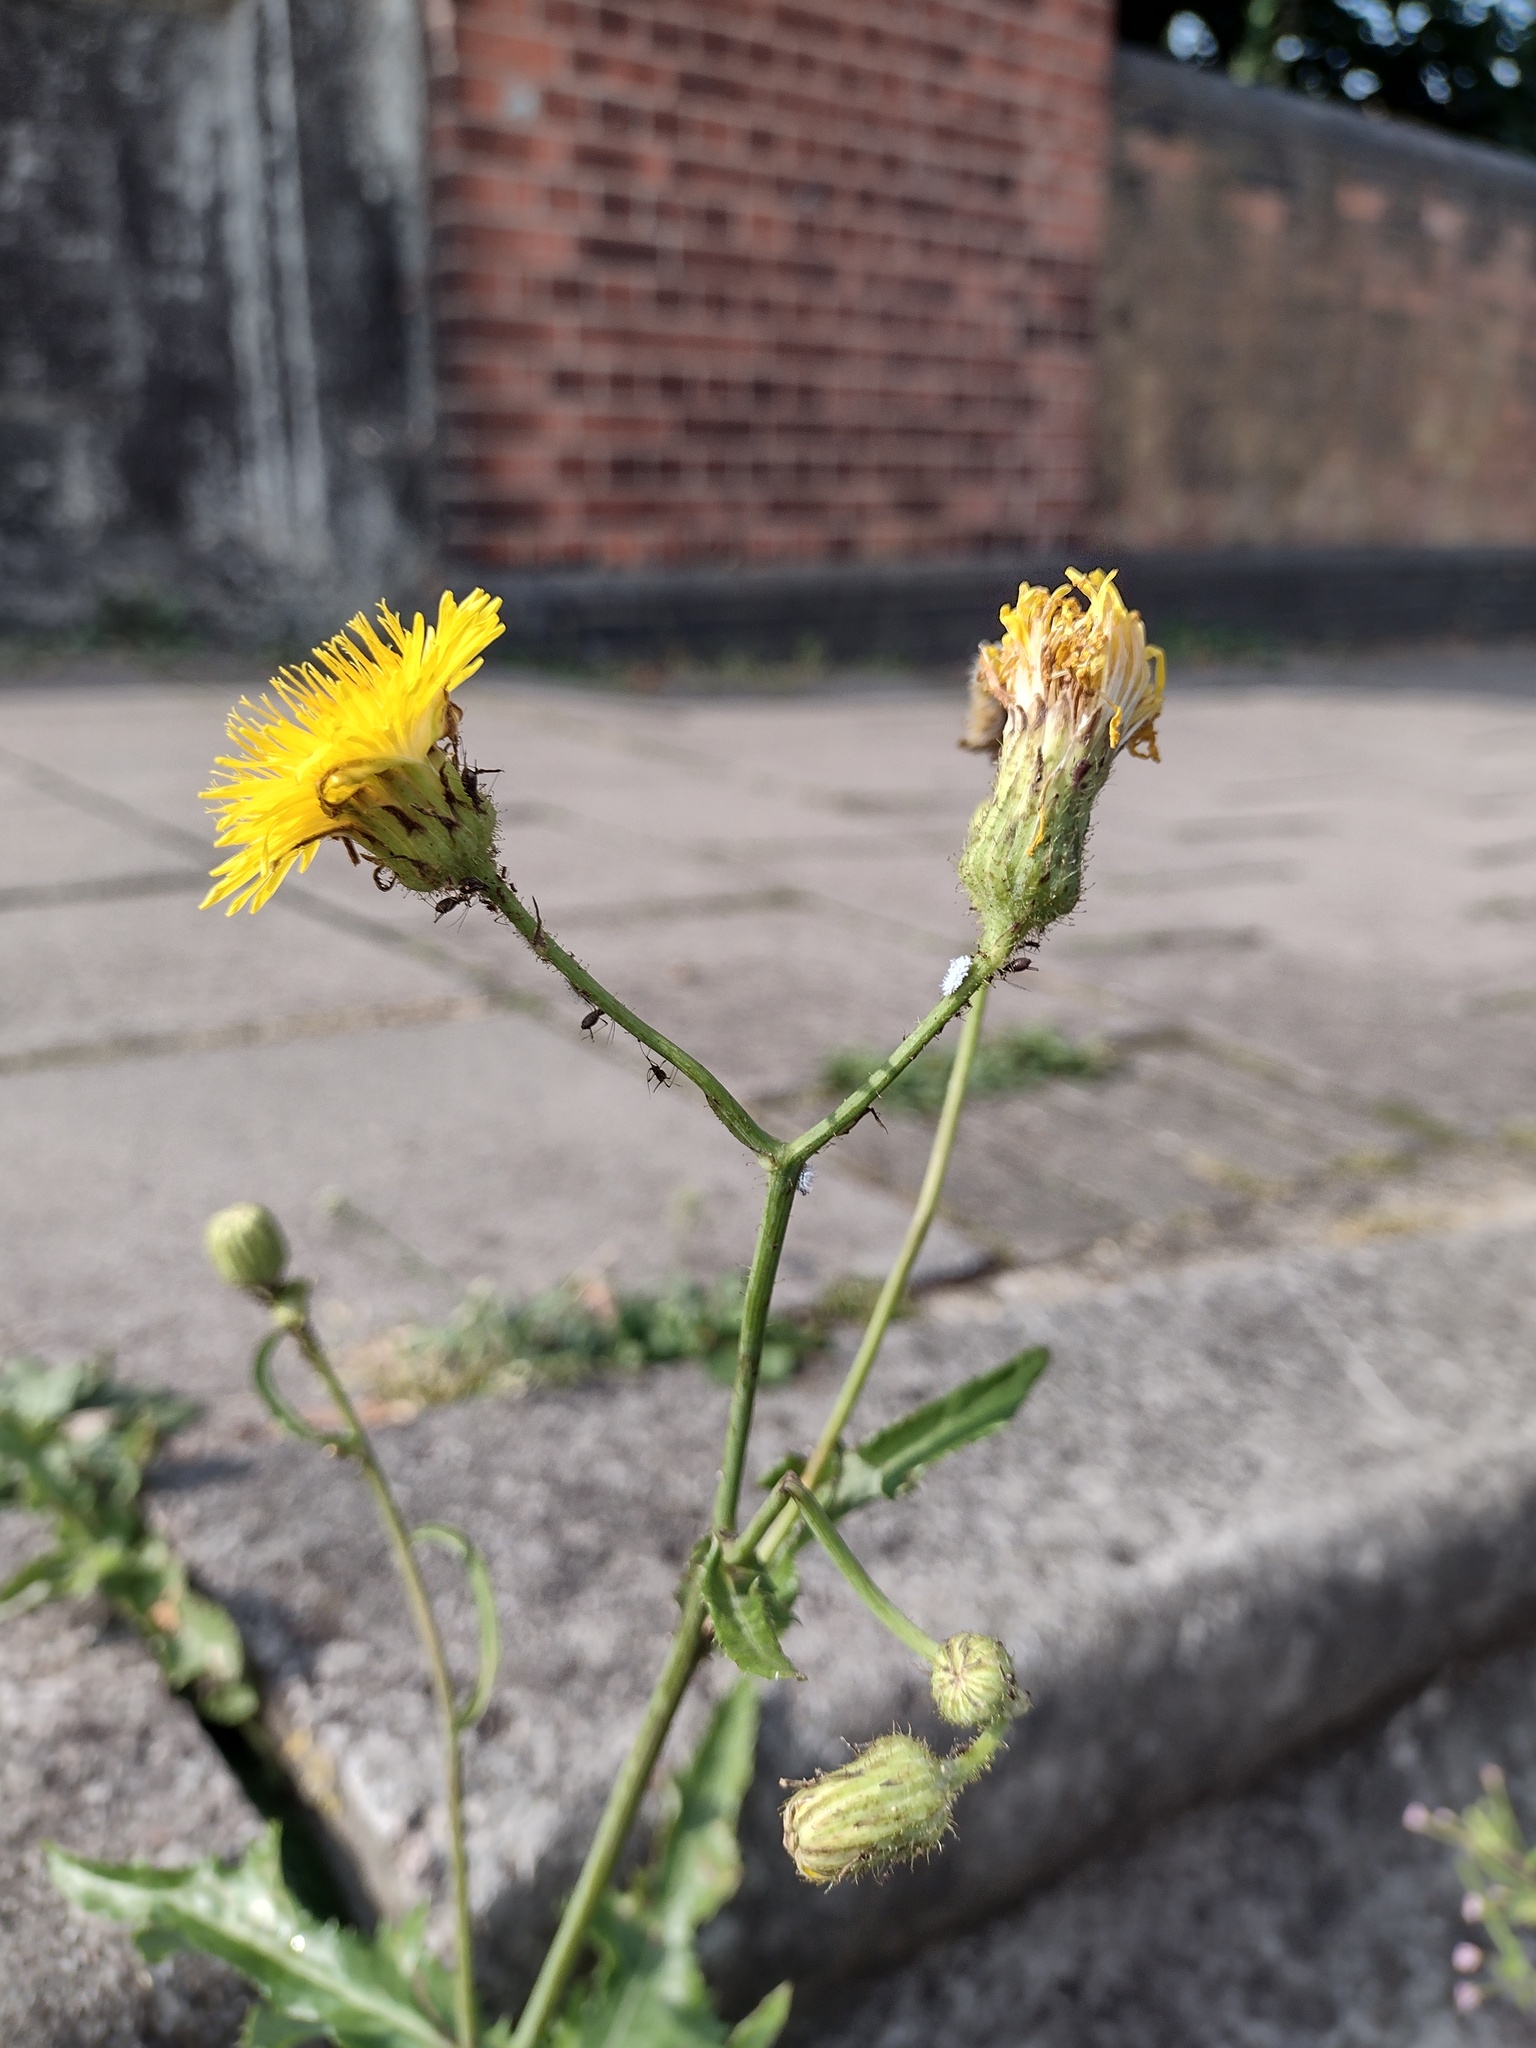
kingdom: Plantae
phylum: Tracheophyta
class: Magnoliopsida
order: Asterales
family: Asteraceae
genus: Sonchus
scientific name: Sonchus arvensis
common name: Perennial sow-thistle
